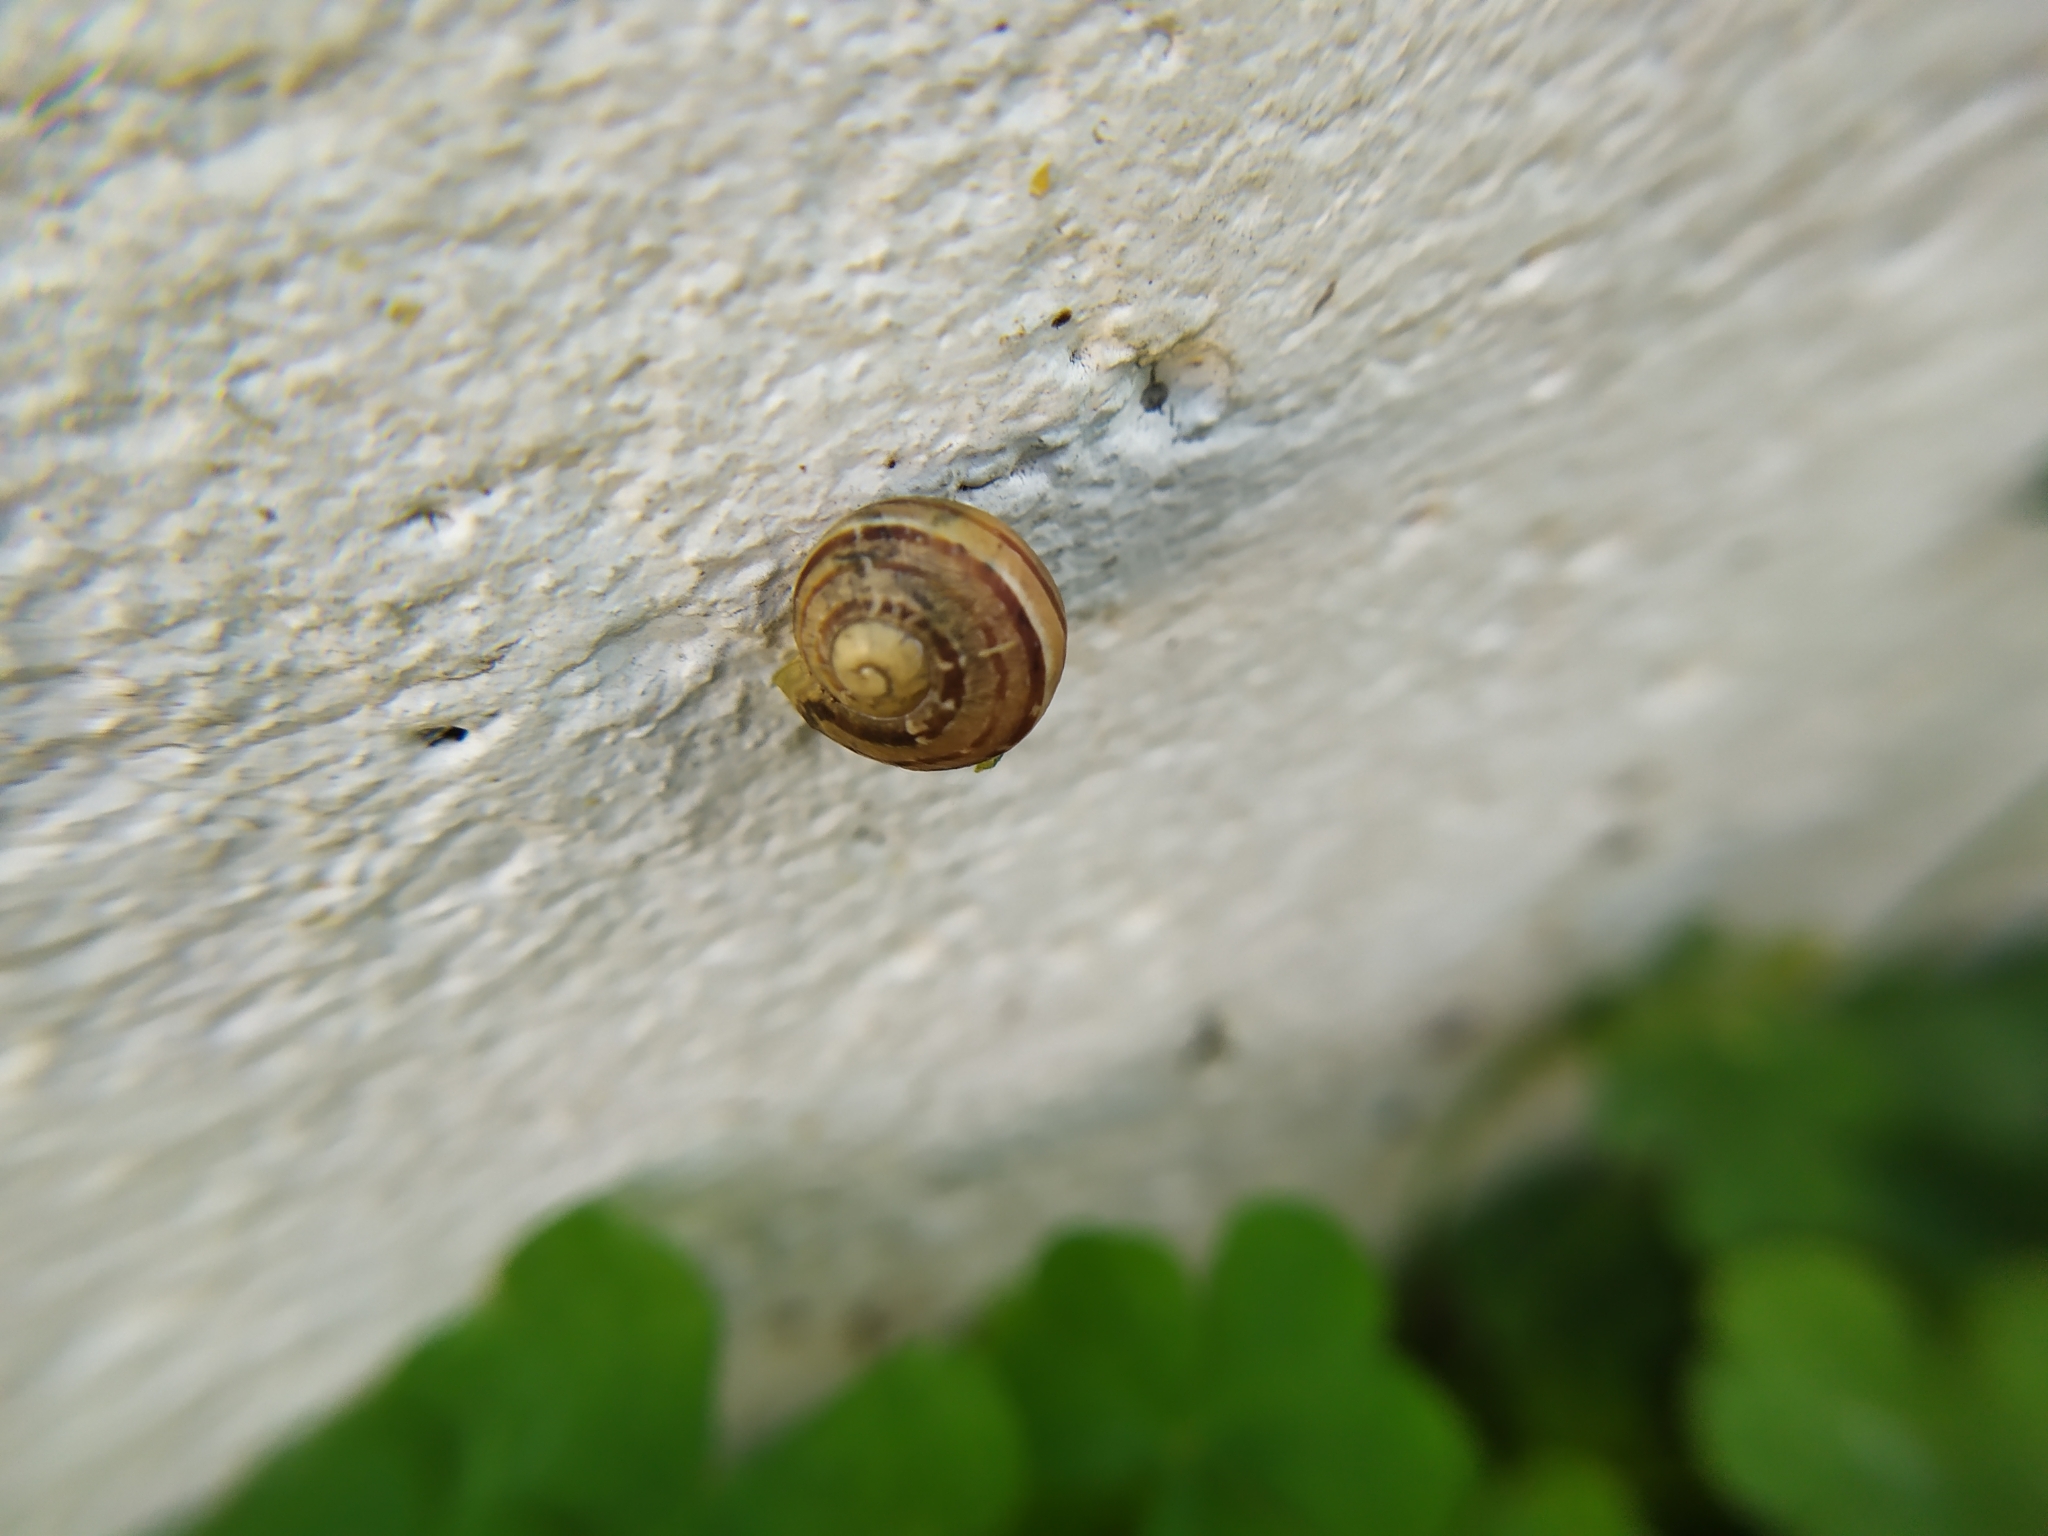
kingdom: Animalia
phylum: Mollusca
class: Gastropoda
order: Stylommatophora
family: Helicidae
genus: Cornu
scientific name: Cornu aspersum
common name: Brown garden snail
